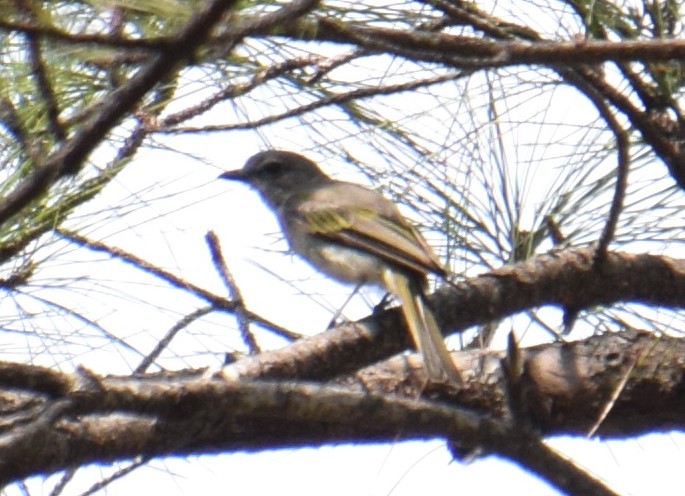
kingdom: Animalia
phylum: Chordata
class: Aves
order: Passeriformes
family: Pachycephalidae
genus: Pachycephala
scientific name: Pachycephala pectoralis
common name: Australian golden whistler
